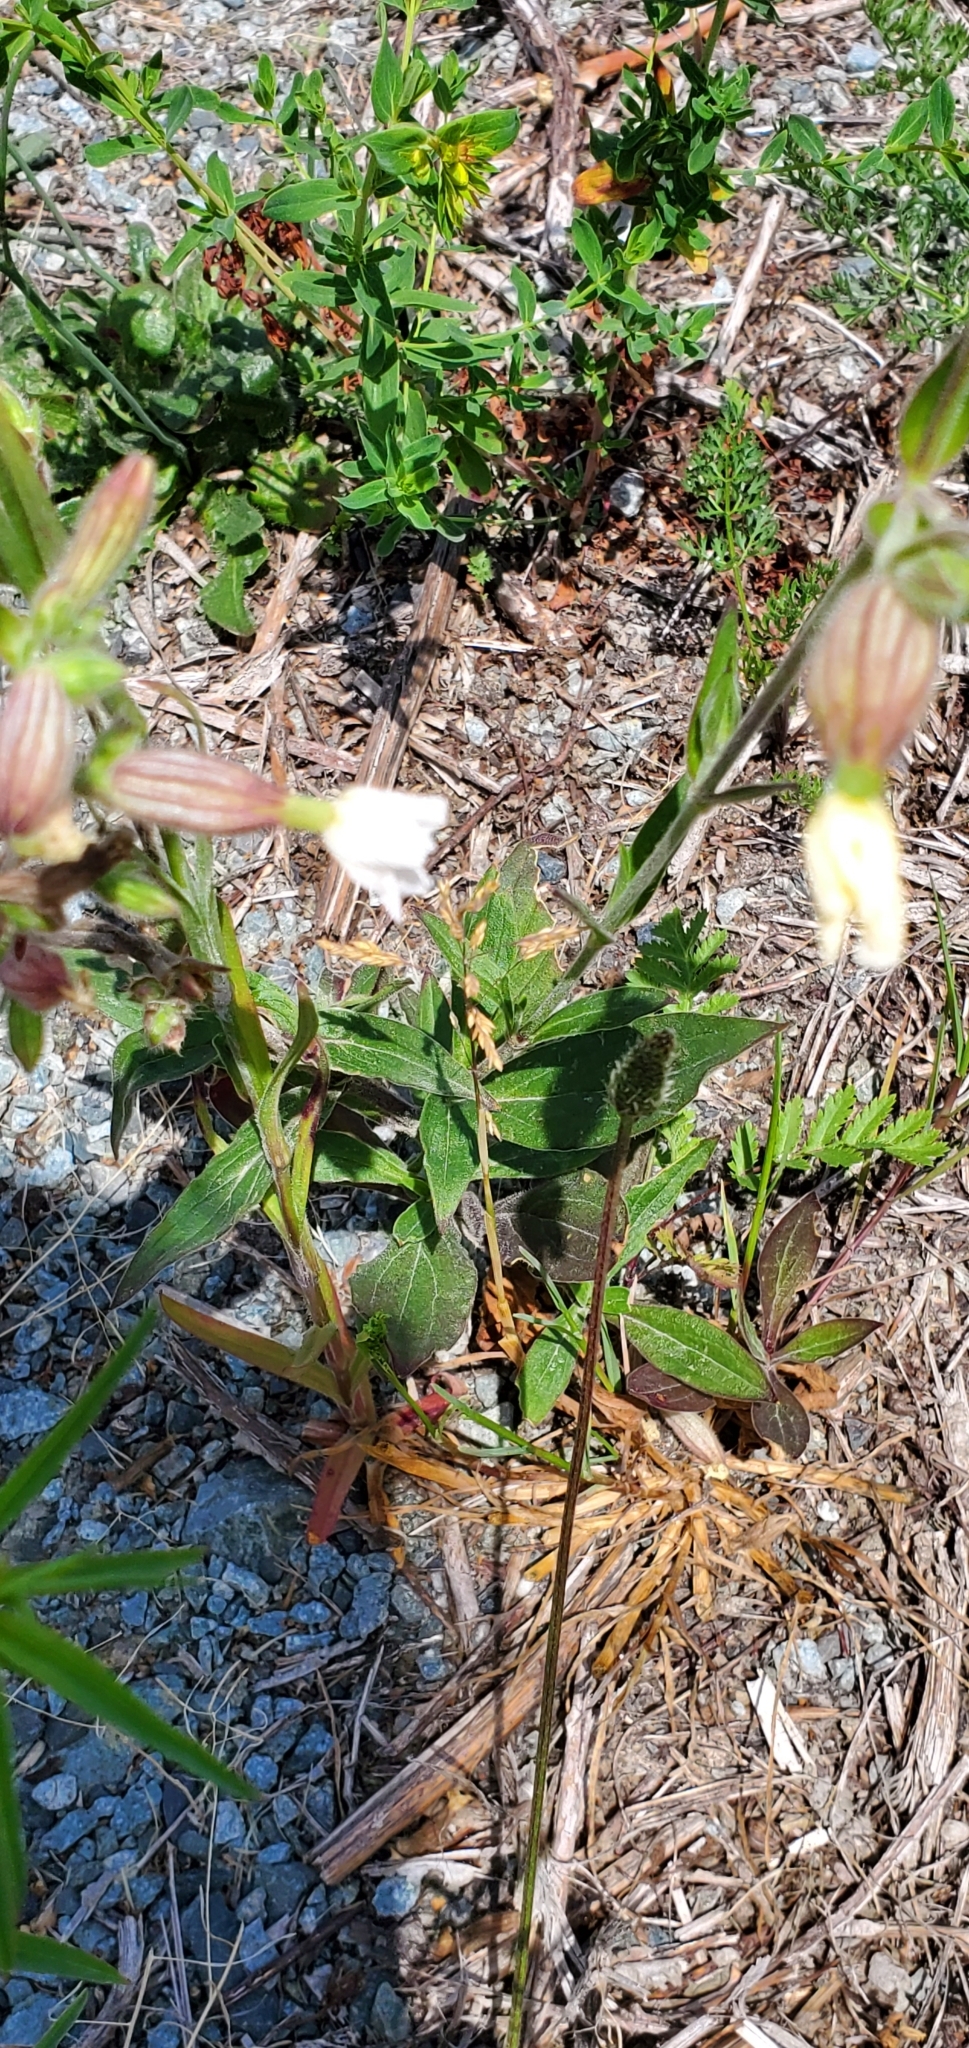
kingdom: Plantae
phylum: Tracheophyta
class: Magnoliopsida
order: Caryophyllales
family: Caryophyllaceae
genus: Silene
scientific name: Silene latifolia
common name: White campion
